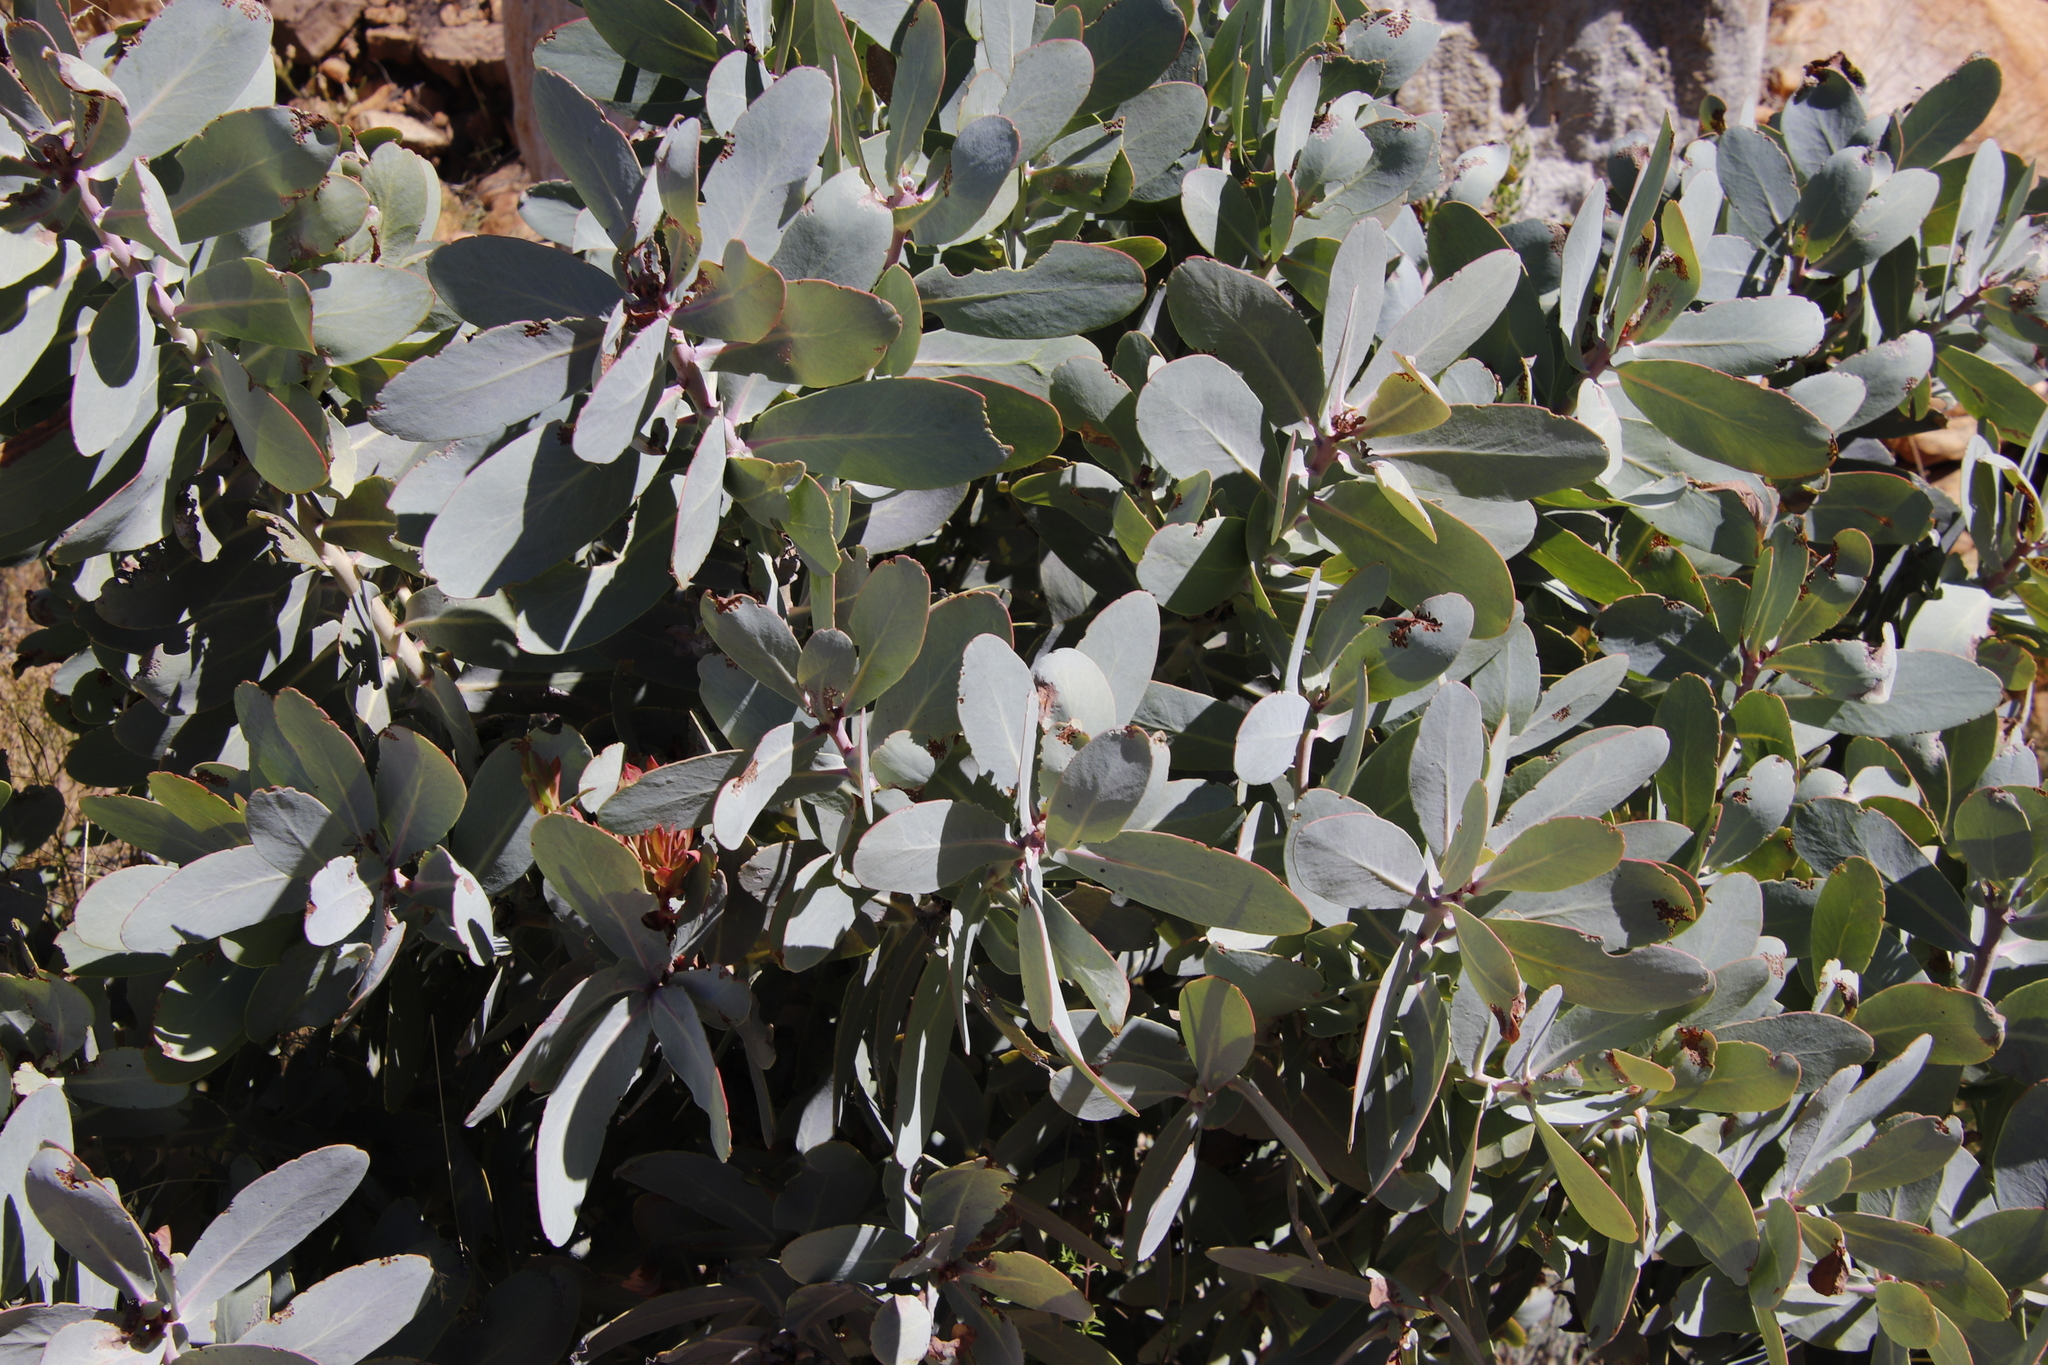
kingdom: Plantae
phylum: Tracheophyta
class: Magnoliopsida
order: Proteales
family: Proteaceae
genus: Protea
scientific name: Protea nitida
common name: Tree protea
